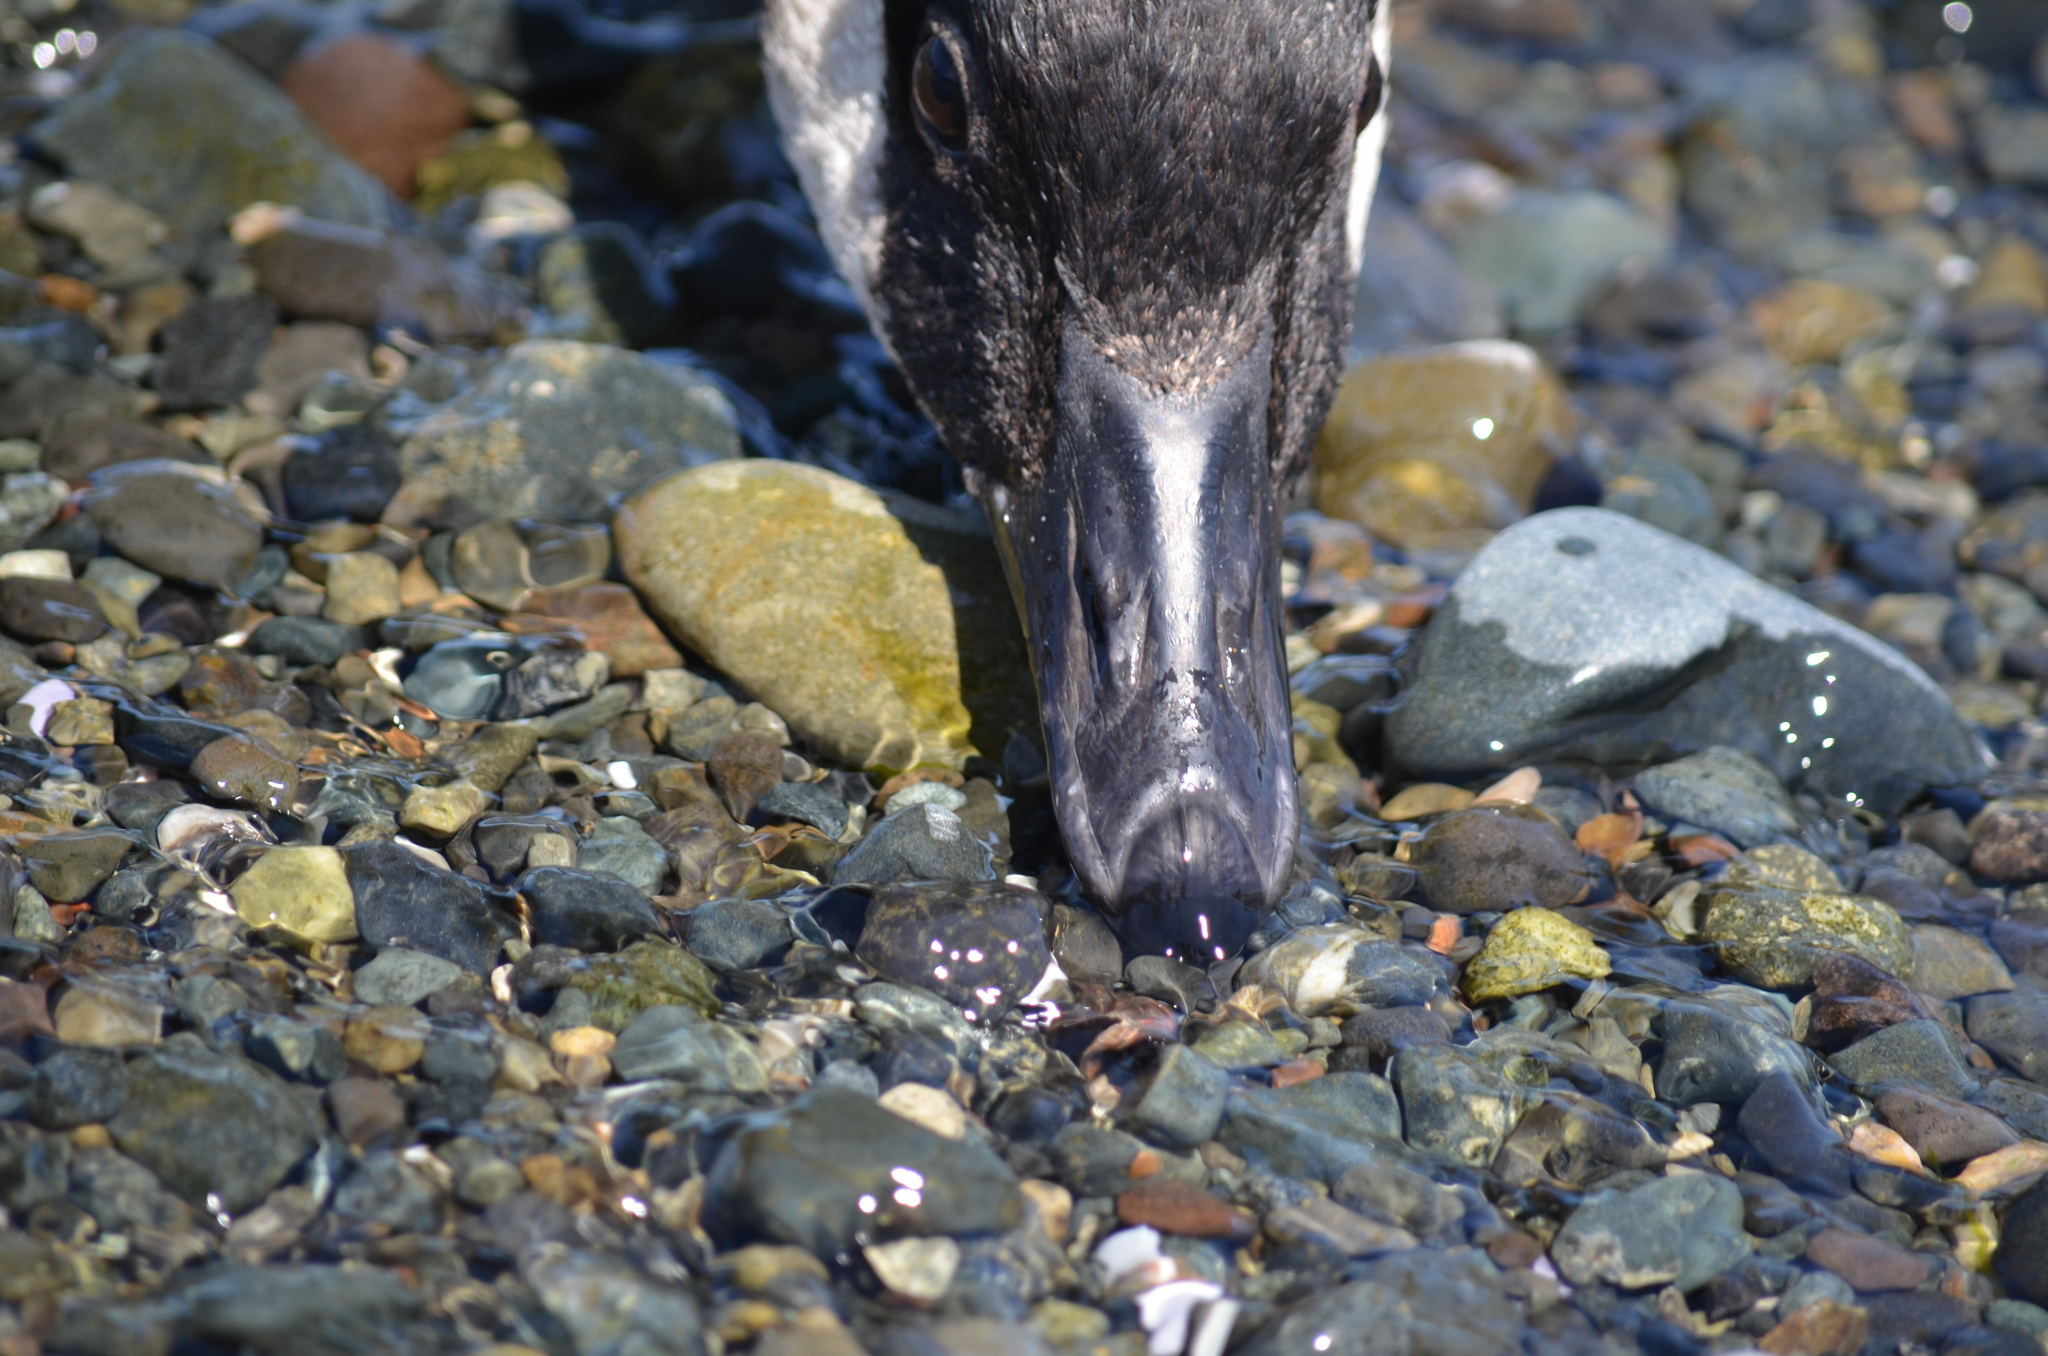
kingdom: Animalia
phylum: Chordata
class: Aves
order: Anseriformes
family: Anatidae
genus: Branta
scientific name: Branta canadensis
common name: Canada goose
